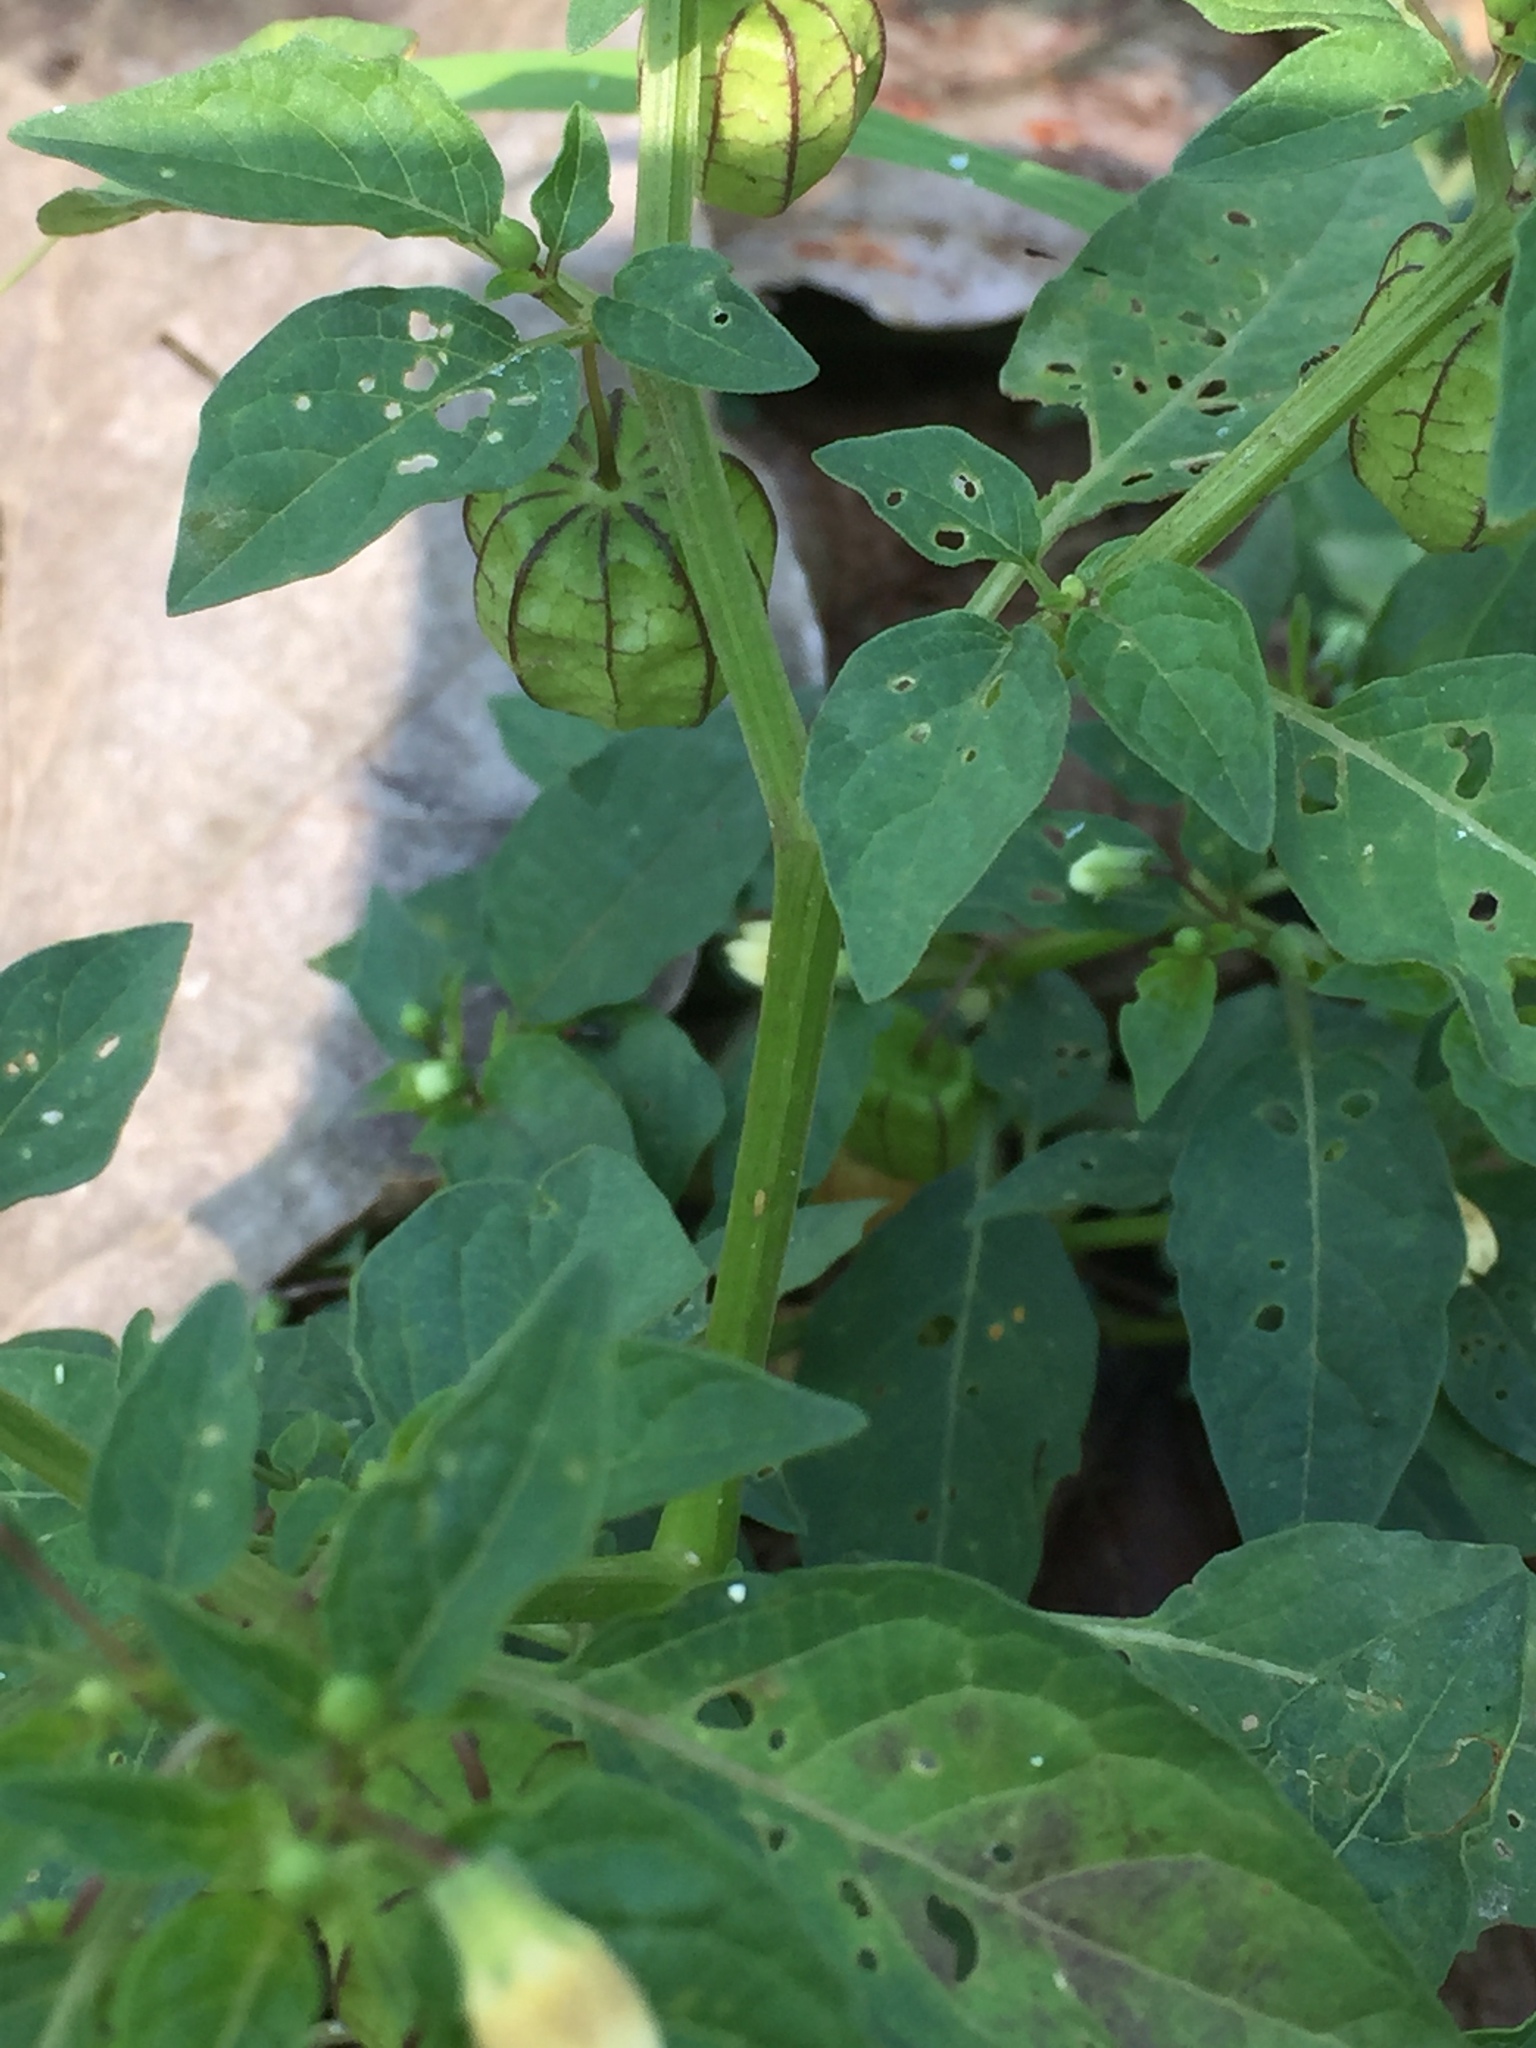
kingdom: Plantae
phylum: Tracheophyta
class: Magnoliopsida
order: Solanales
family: Solanaceae
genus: Physalis
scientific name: Physalis angulata
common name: Angular winter-cherry
